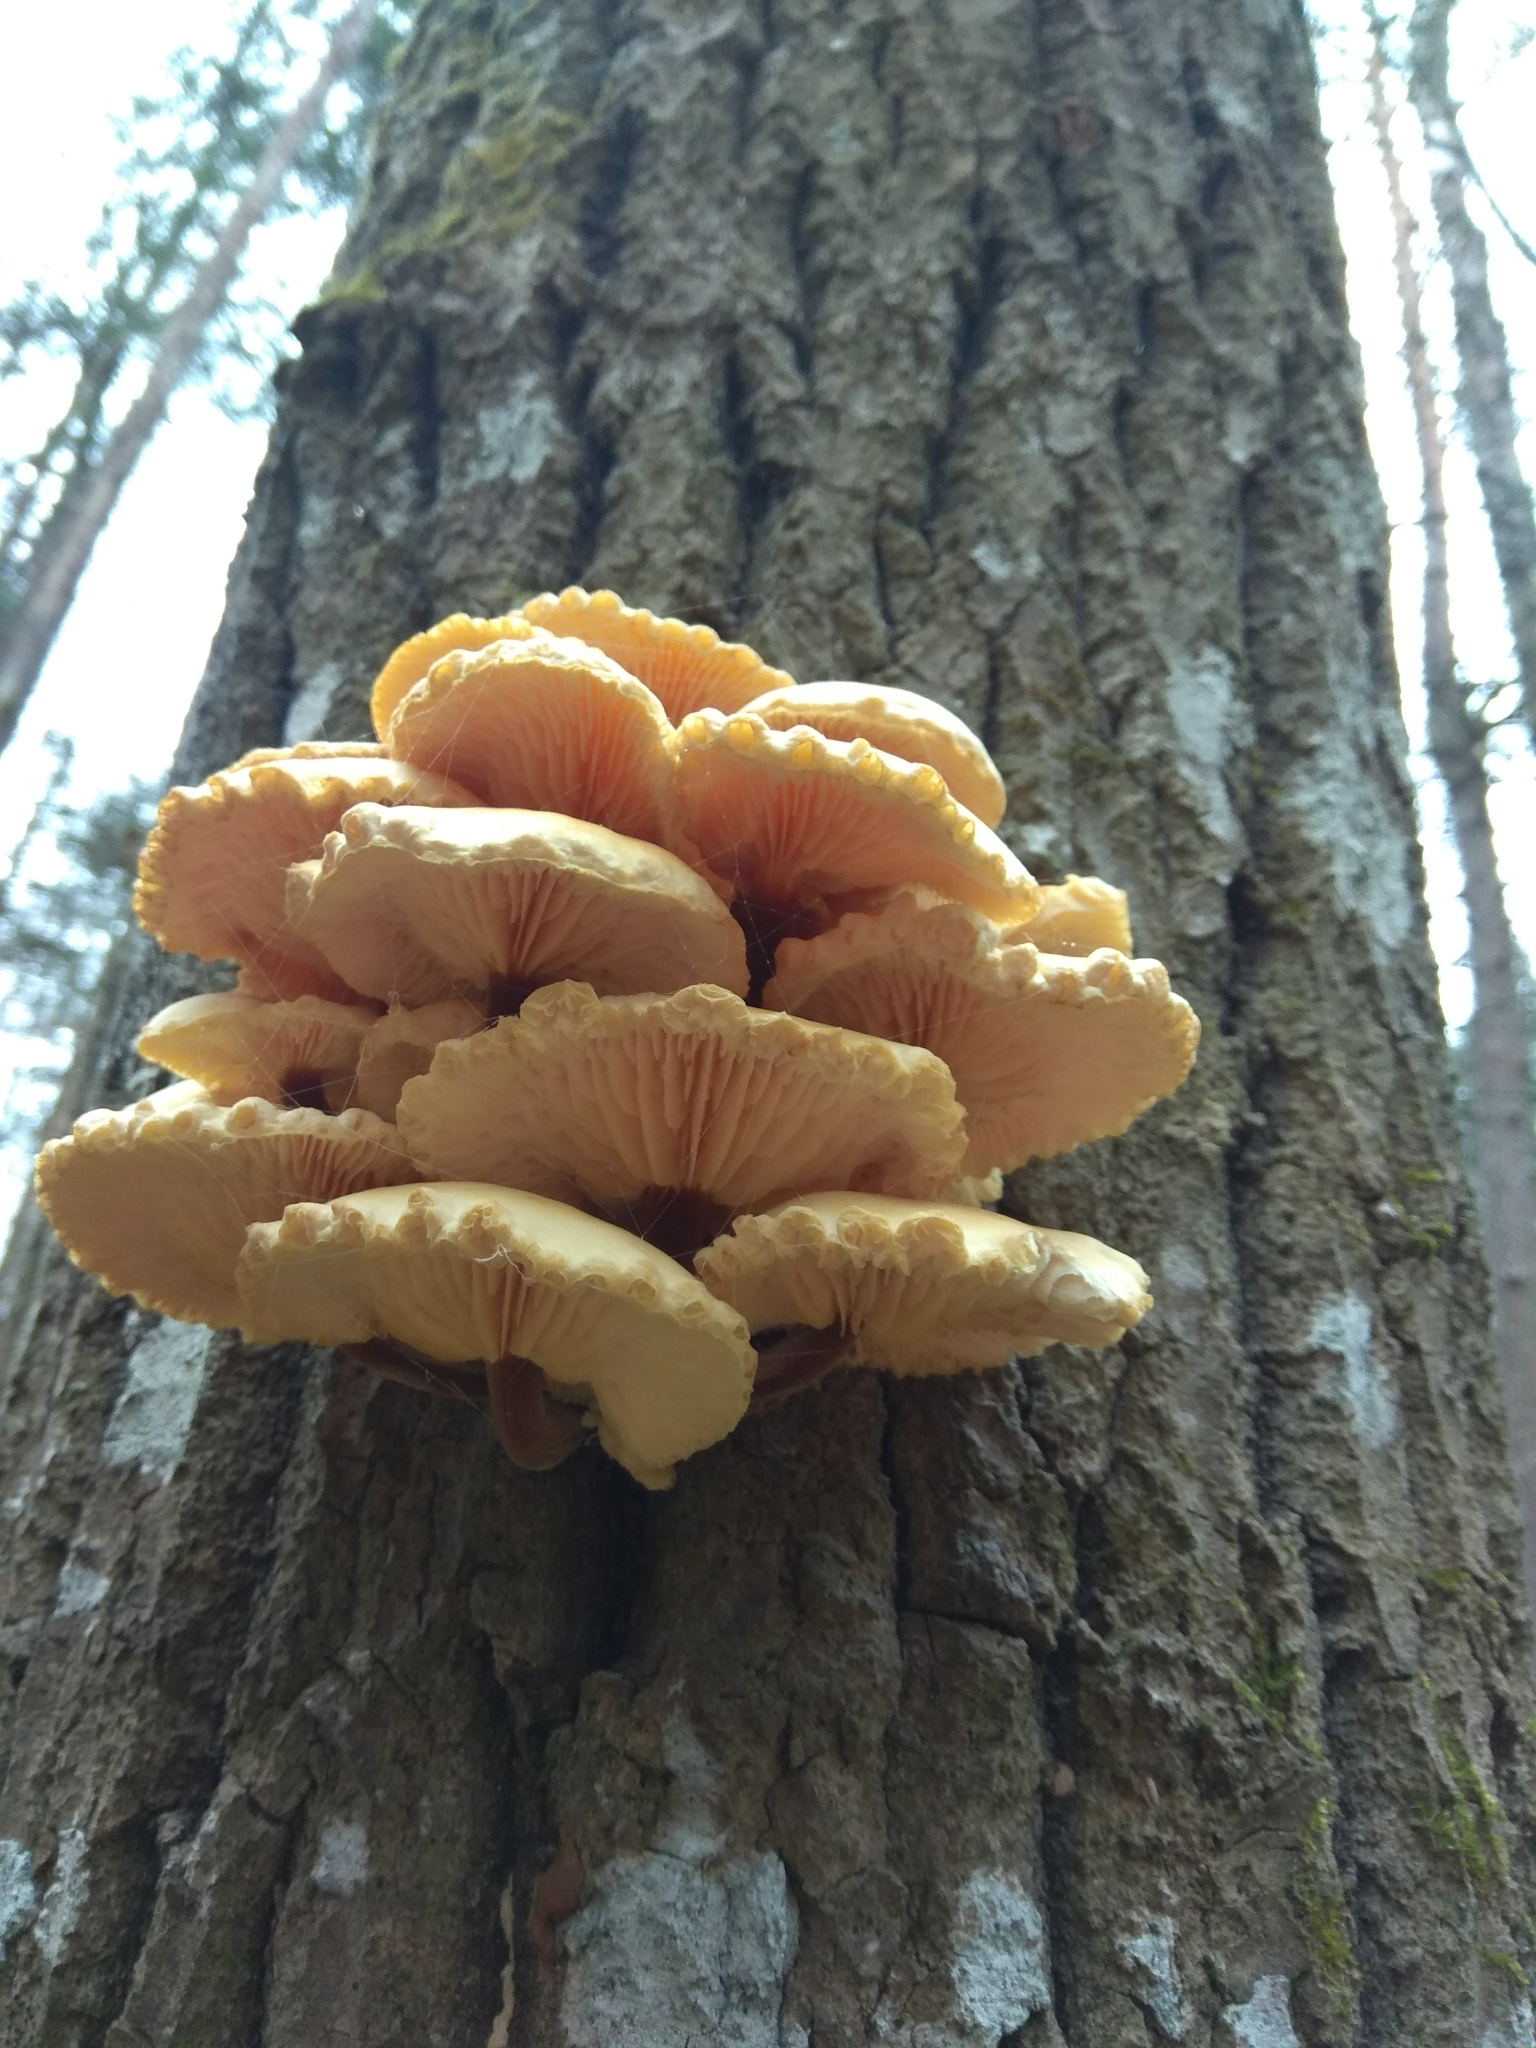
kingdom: Fungi
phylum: Basidiomycota
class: Agaricomycetes
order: Agaricales
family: Physalacriaceae
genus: Flammulina
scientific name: Flammulina
